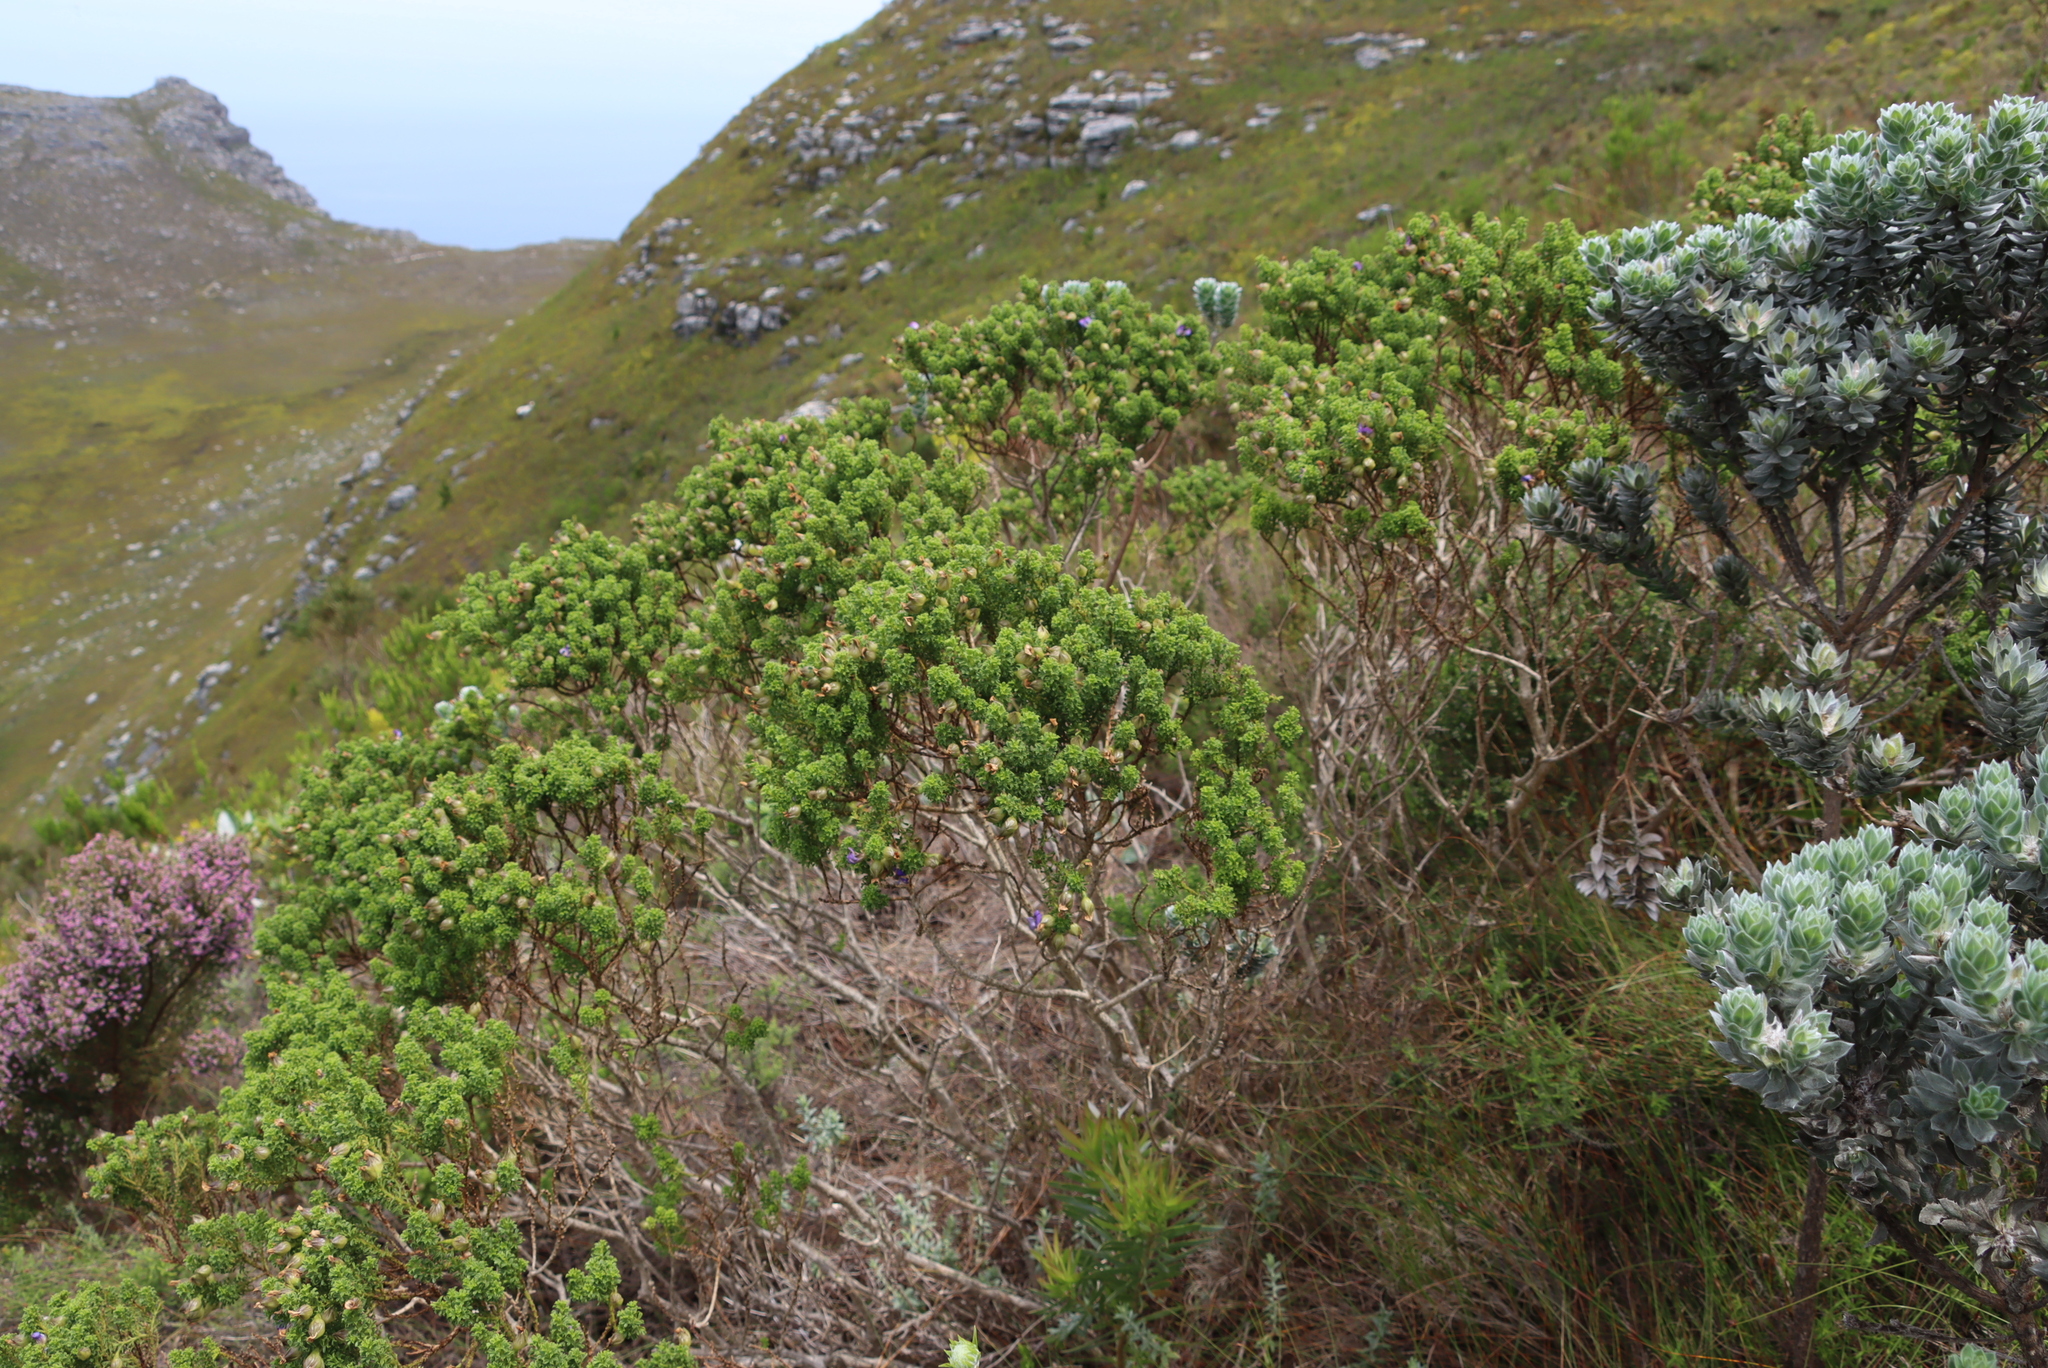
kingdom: Plantae
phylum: Tracheophyta
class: Magnoliopsida
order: Fabales
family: Fabaceae
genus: Psoralea
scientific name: Psoralea aculeata
